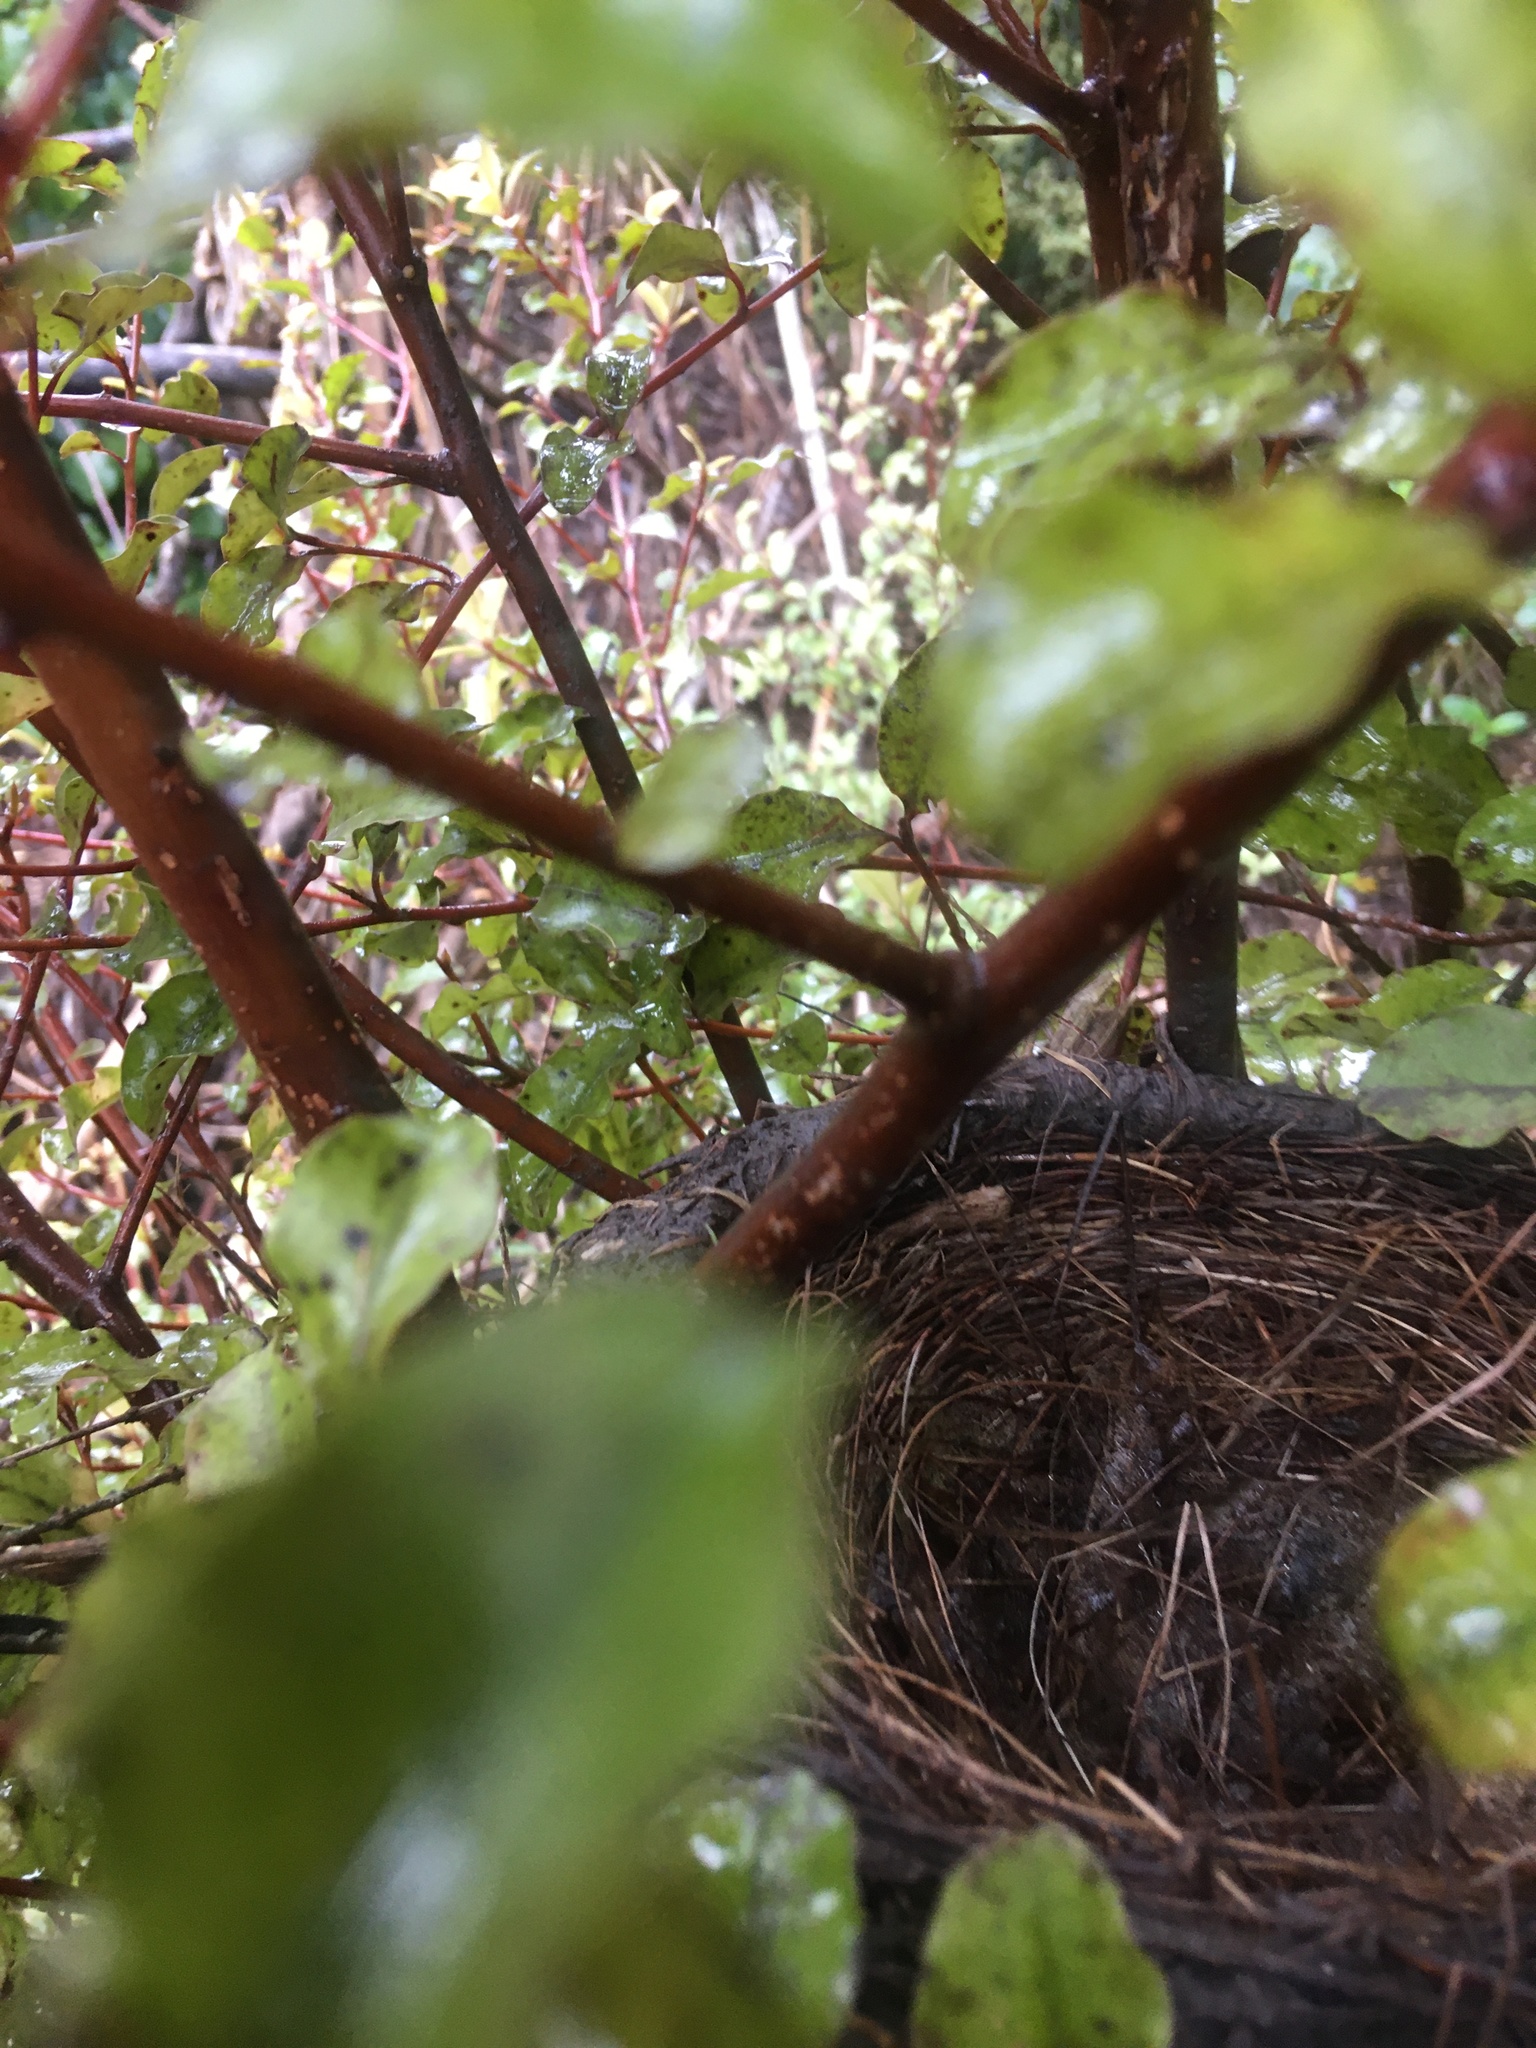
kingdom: Animalia
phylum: Chordata
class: Aves
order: Passeriformes
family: Turdidae
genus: Turdus
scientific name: Turdus merula
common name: Common blackbird
